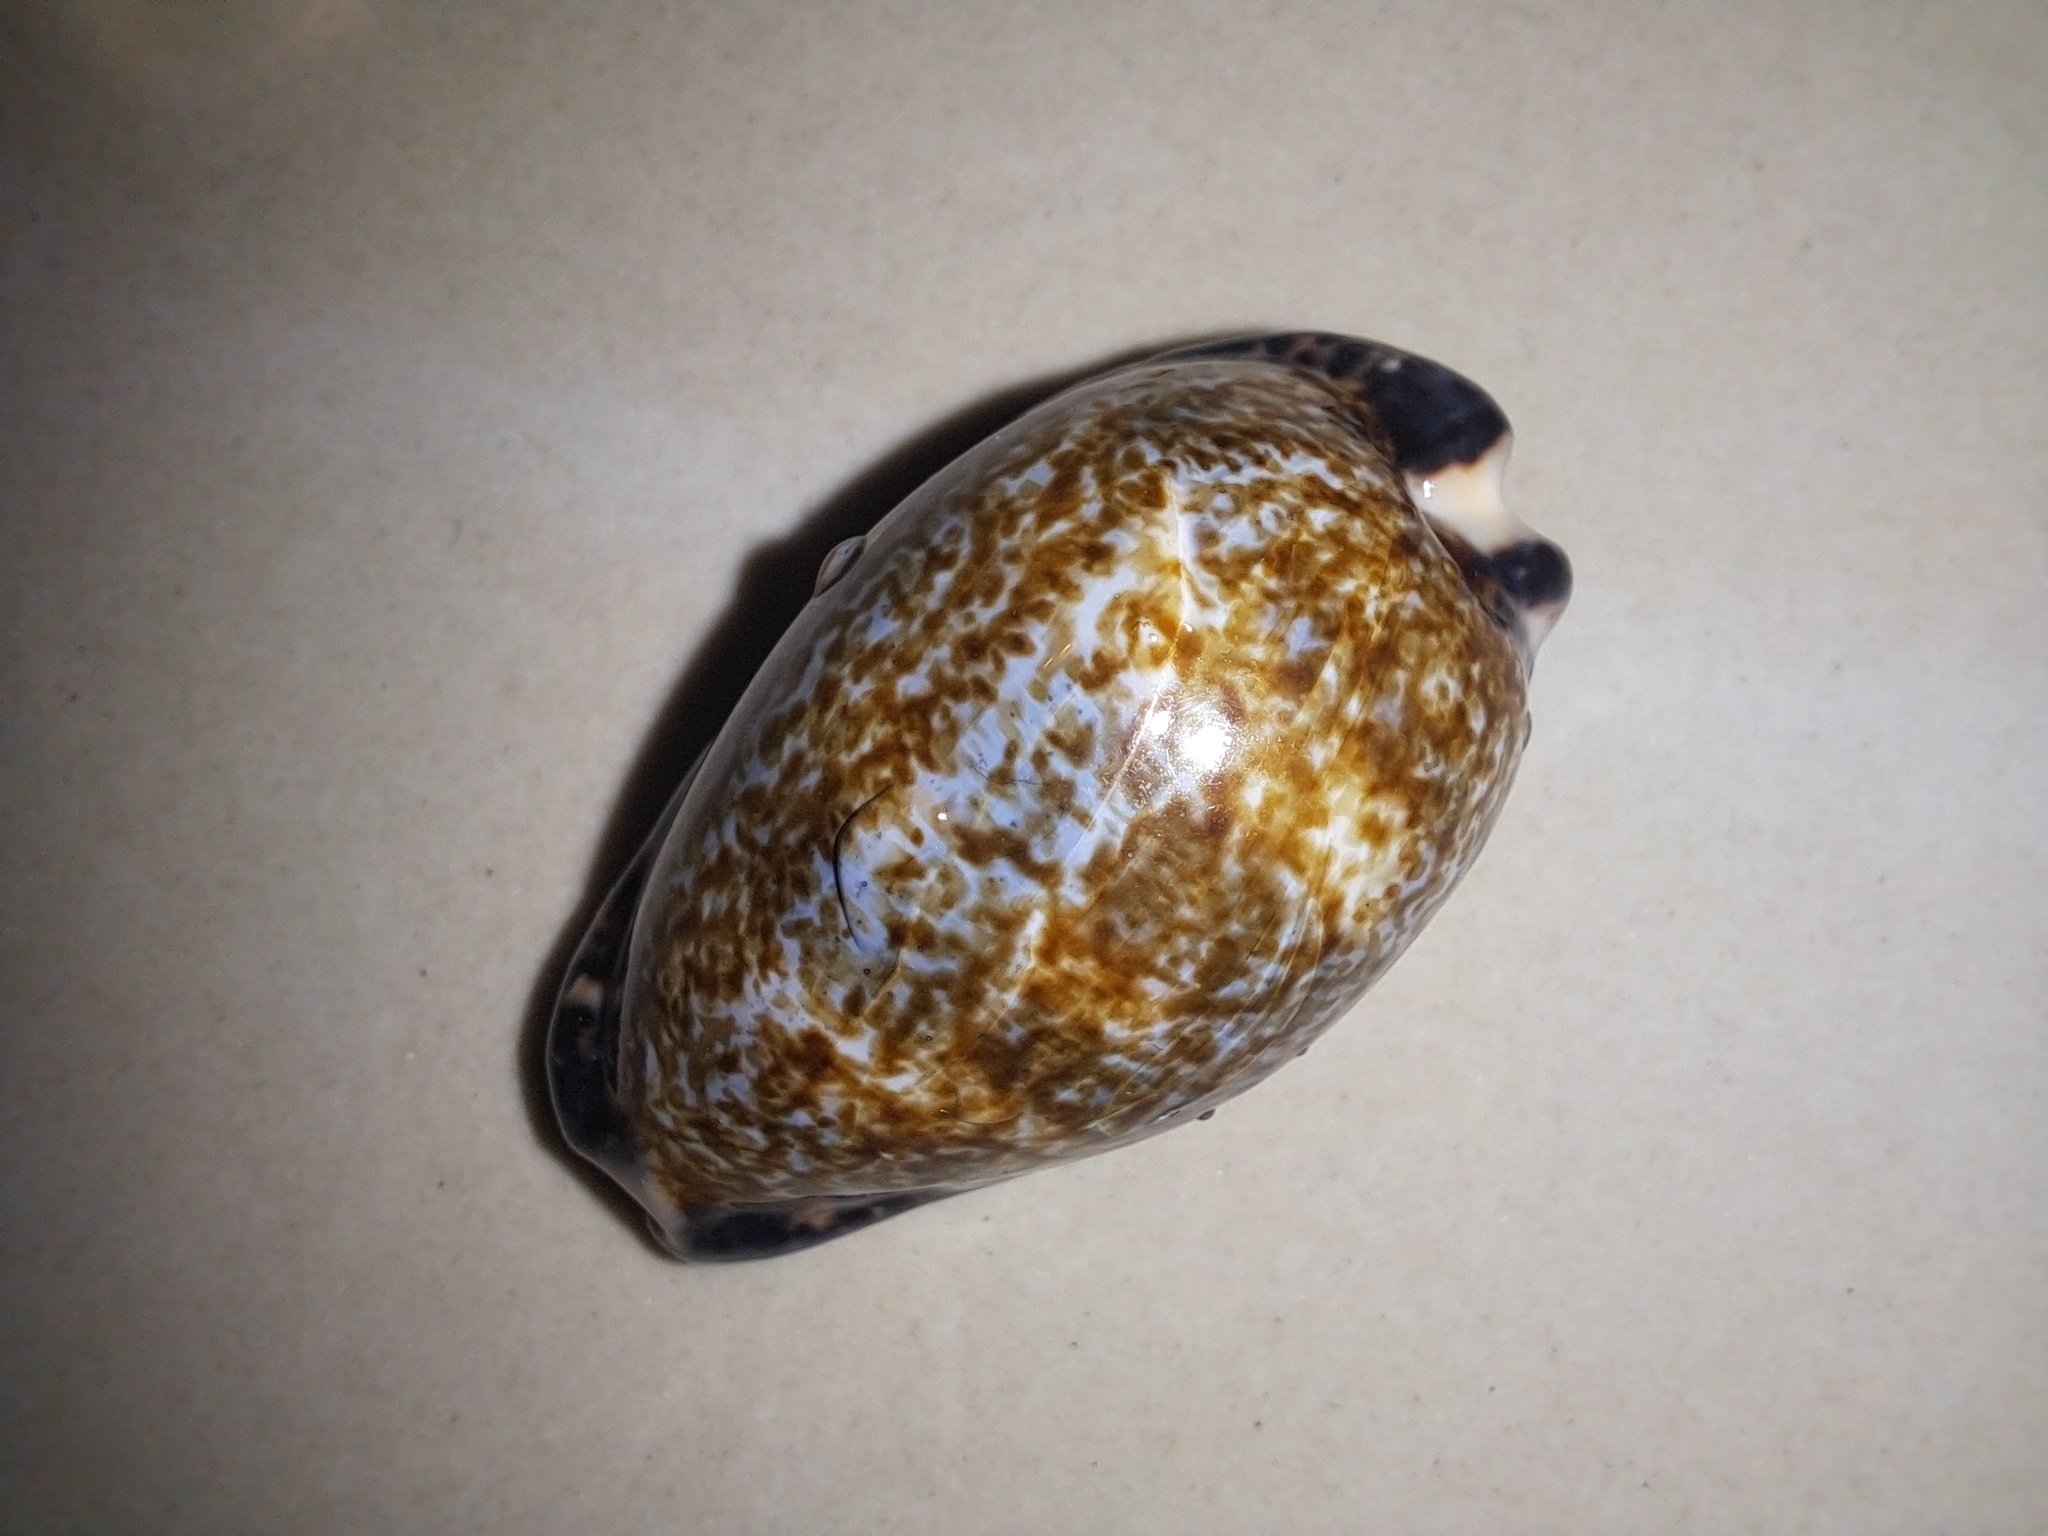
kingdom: Animalia
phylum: Mollusca
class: Gastropoda
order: Littorinimorpha
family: Cypraeidae
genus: Pseudozonaria
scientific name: Pseudozonaria nigropunctata
